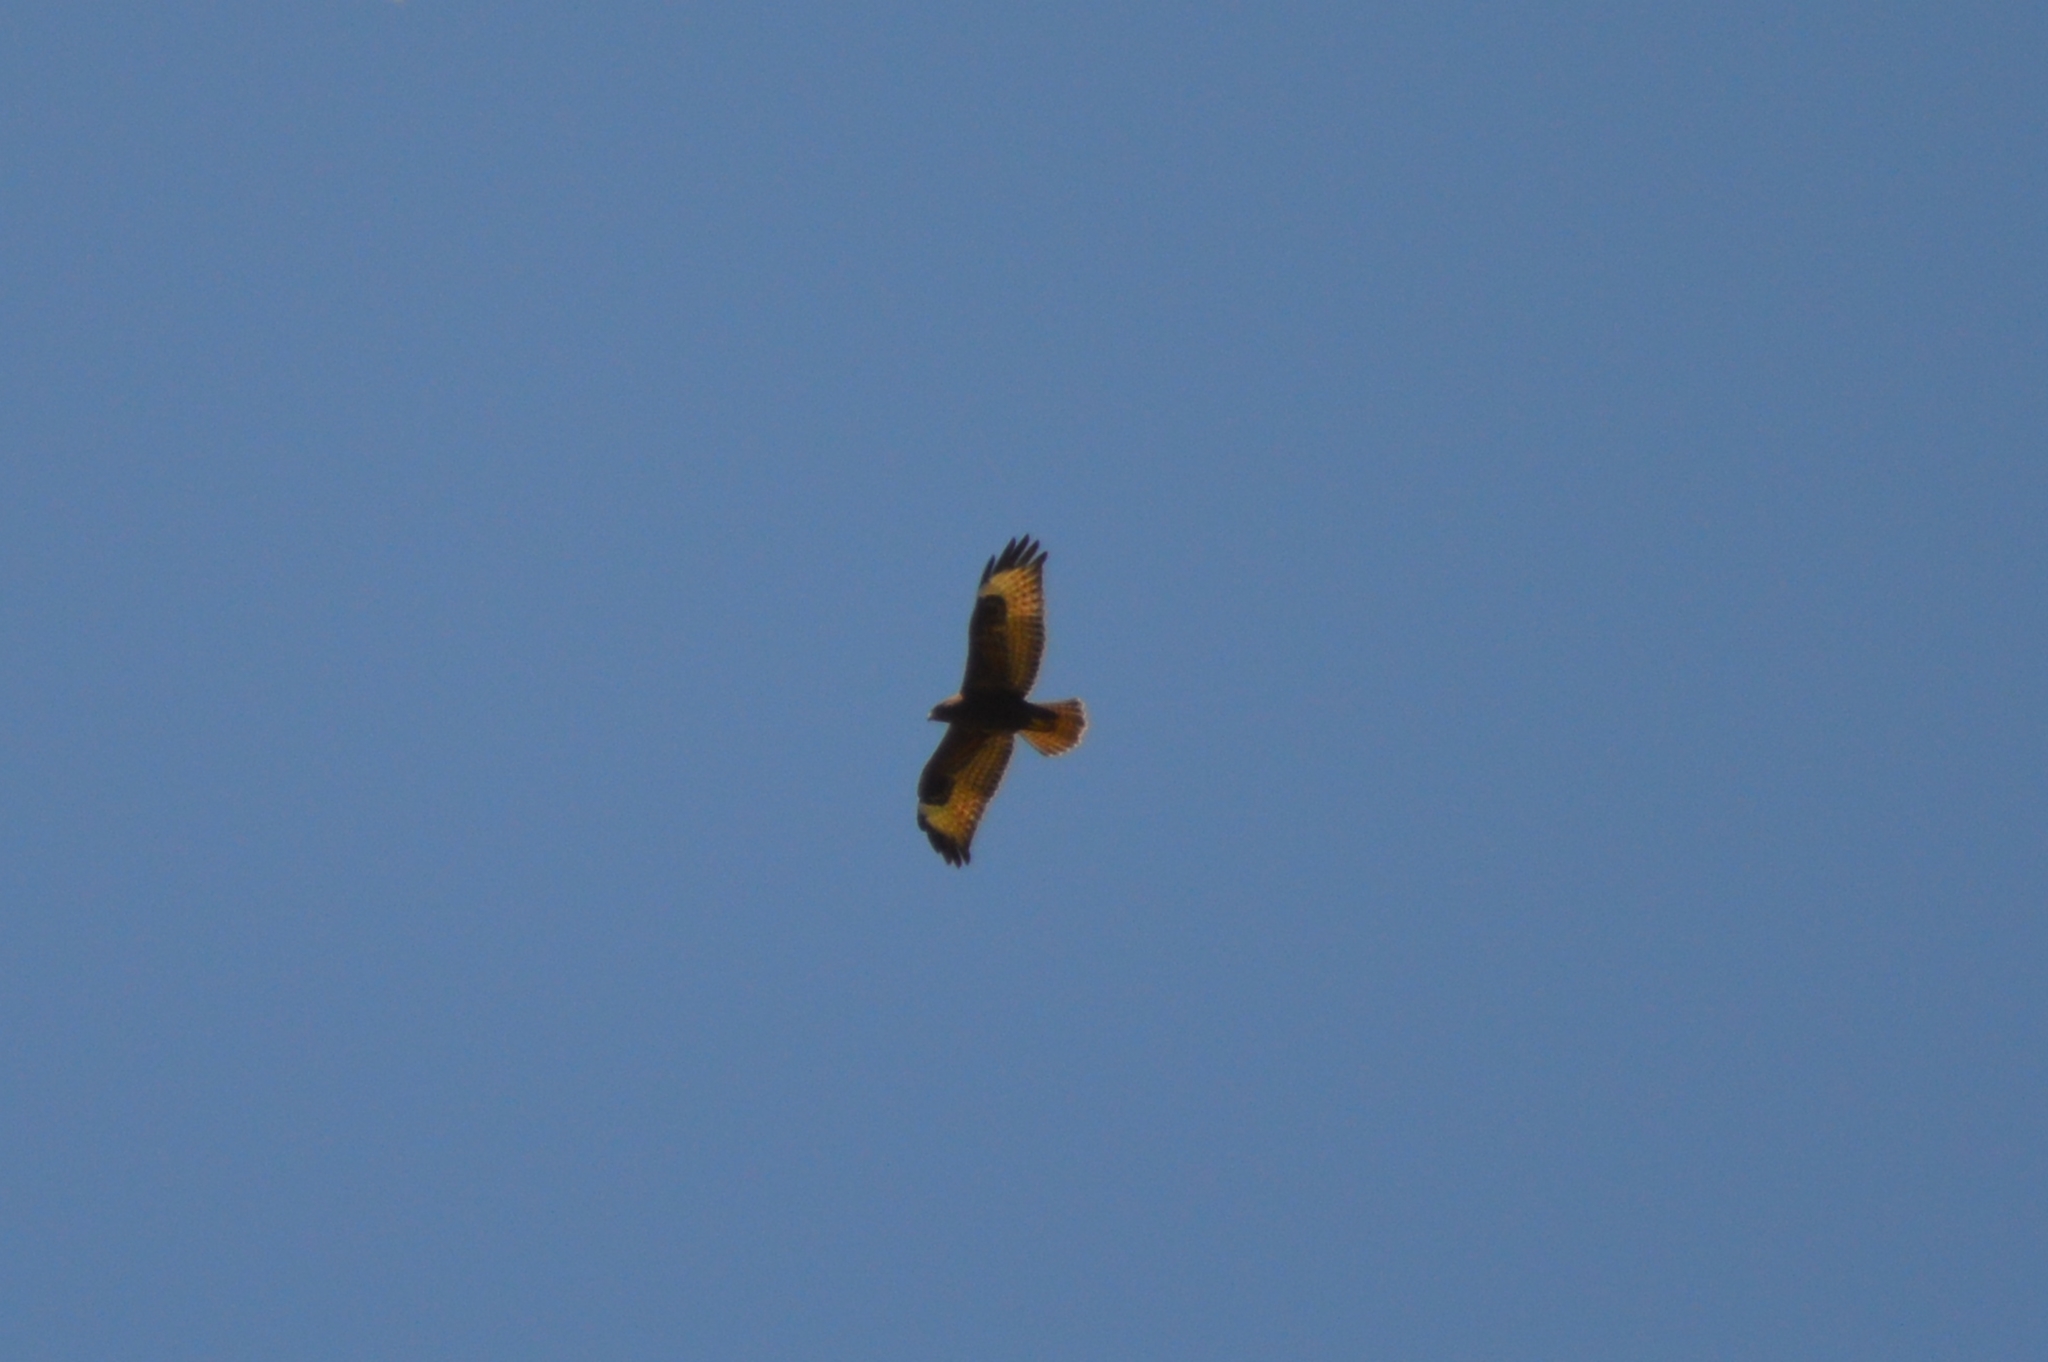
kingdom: Animalia
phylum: Chordata
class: Aves
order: Accipitriformes
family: Accipitridae
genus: Buteo
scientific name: Buteo buteo
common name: Common buzzard
